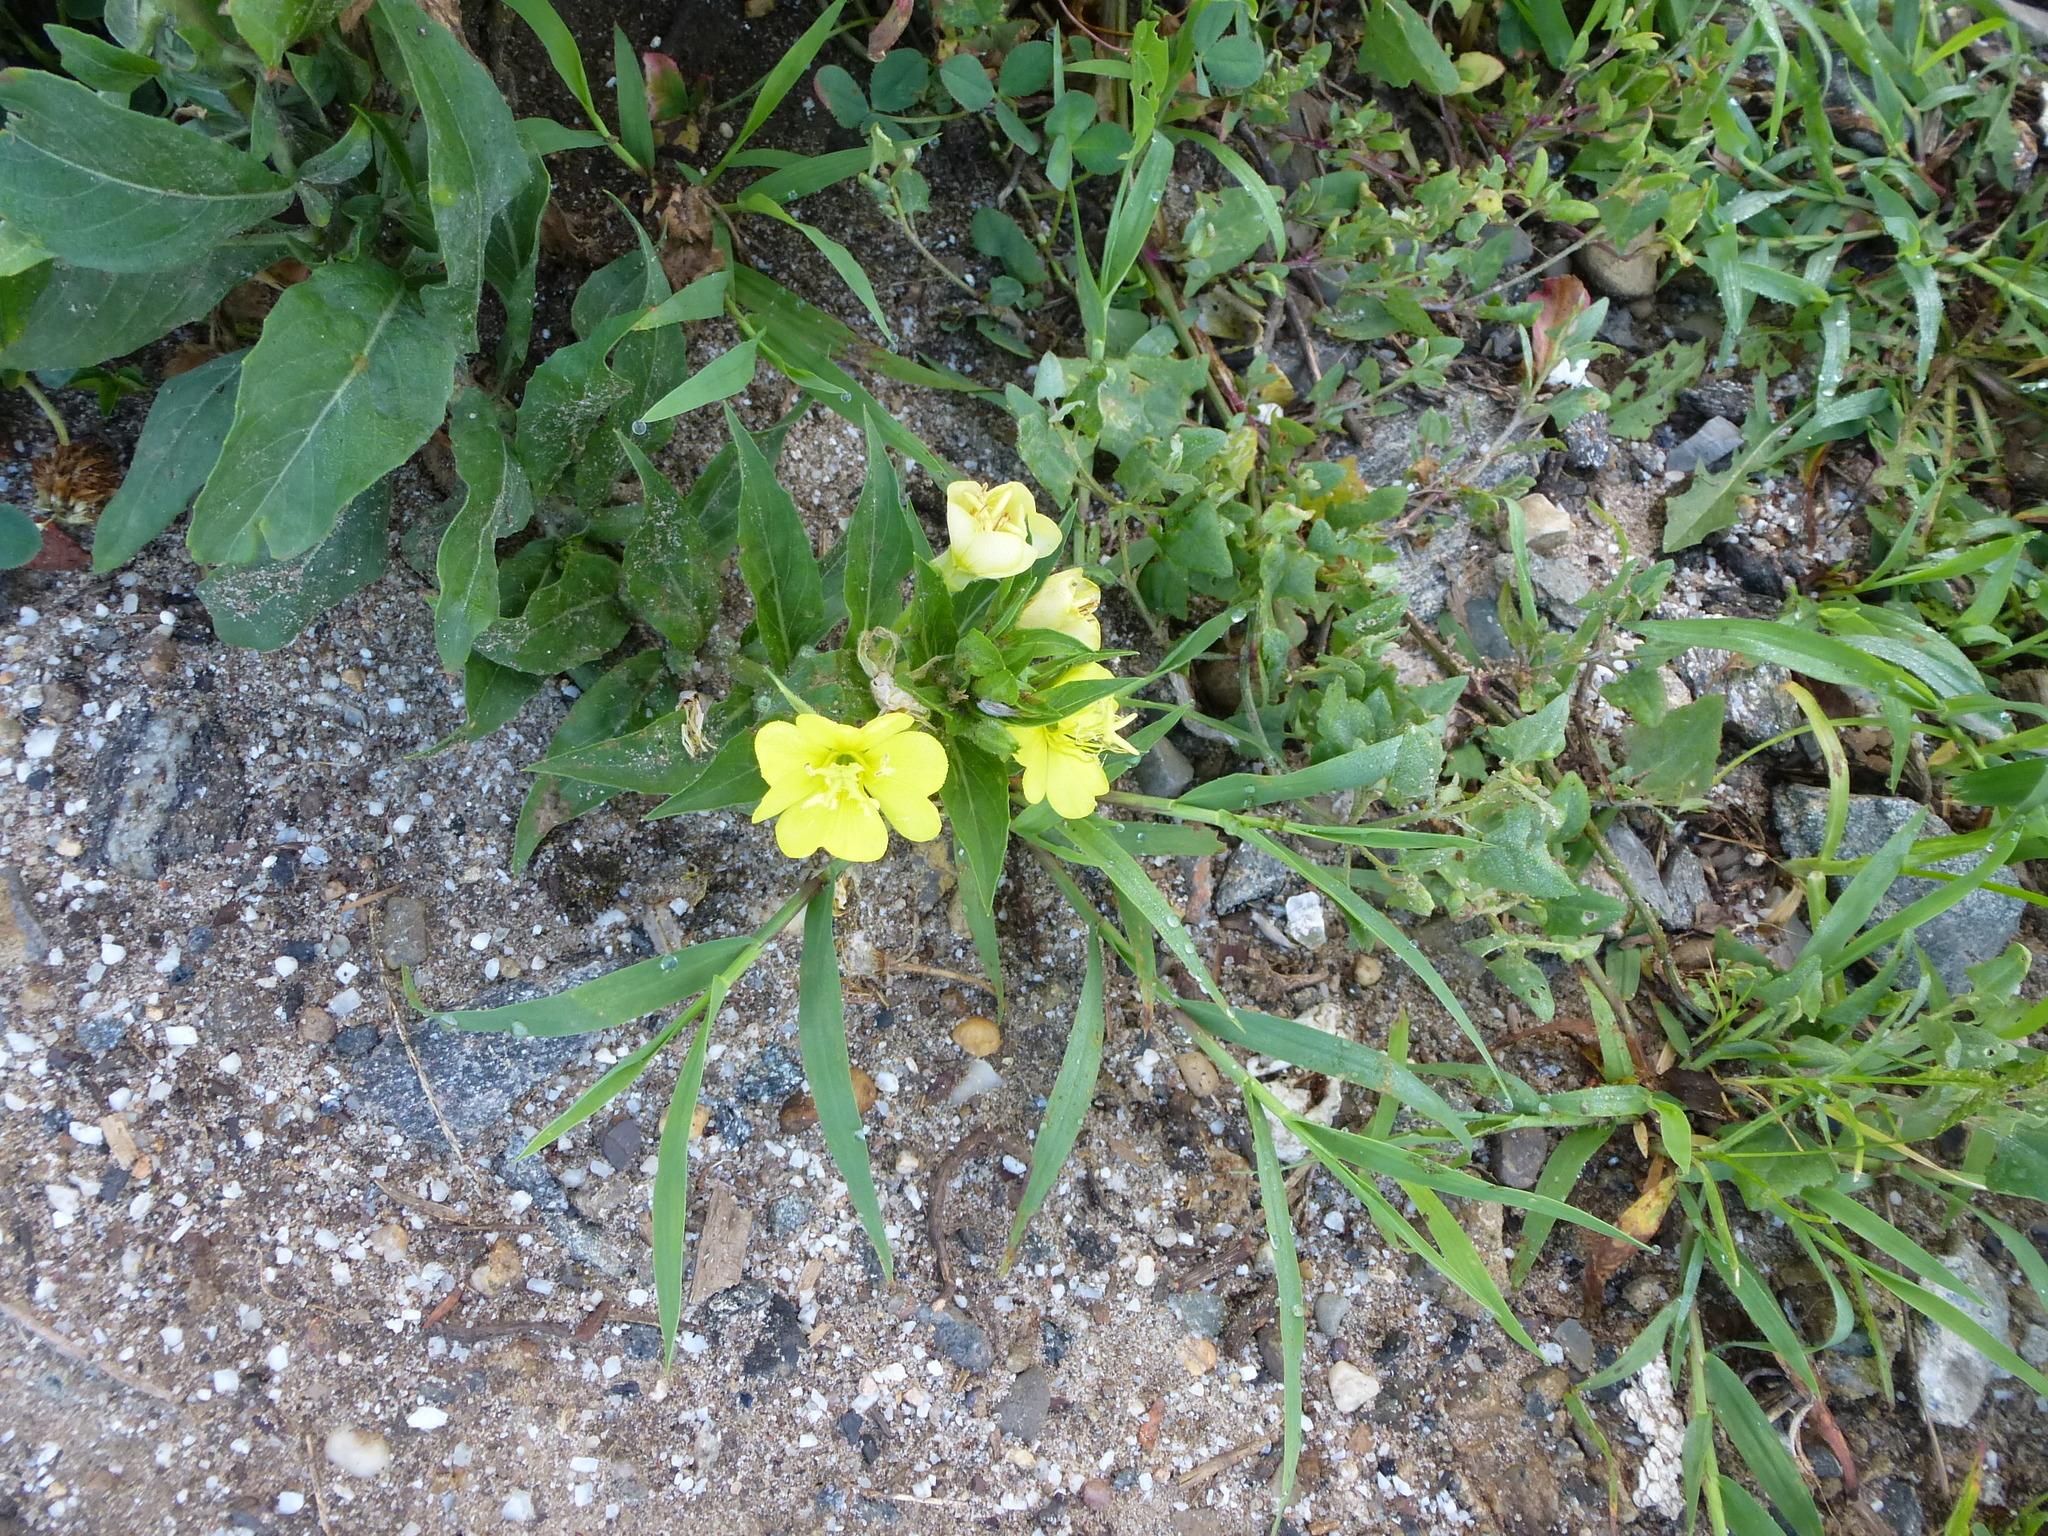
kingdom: Plantae
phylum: Tracheophyta
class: Magnoliopsida
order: Myrtales
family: Onagraceae
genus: Oenothera
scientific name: Oenothera biennis
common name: Common evening-primrose
